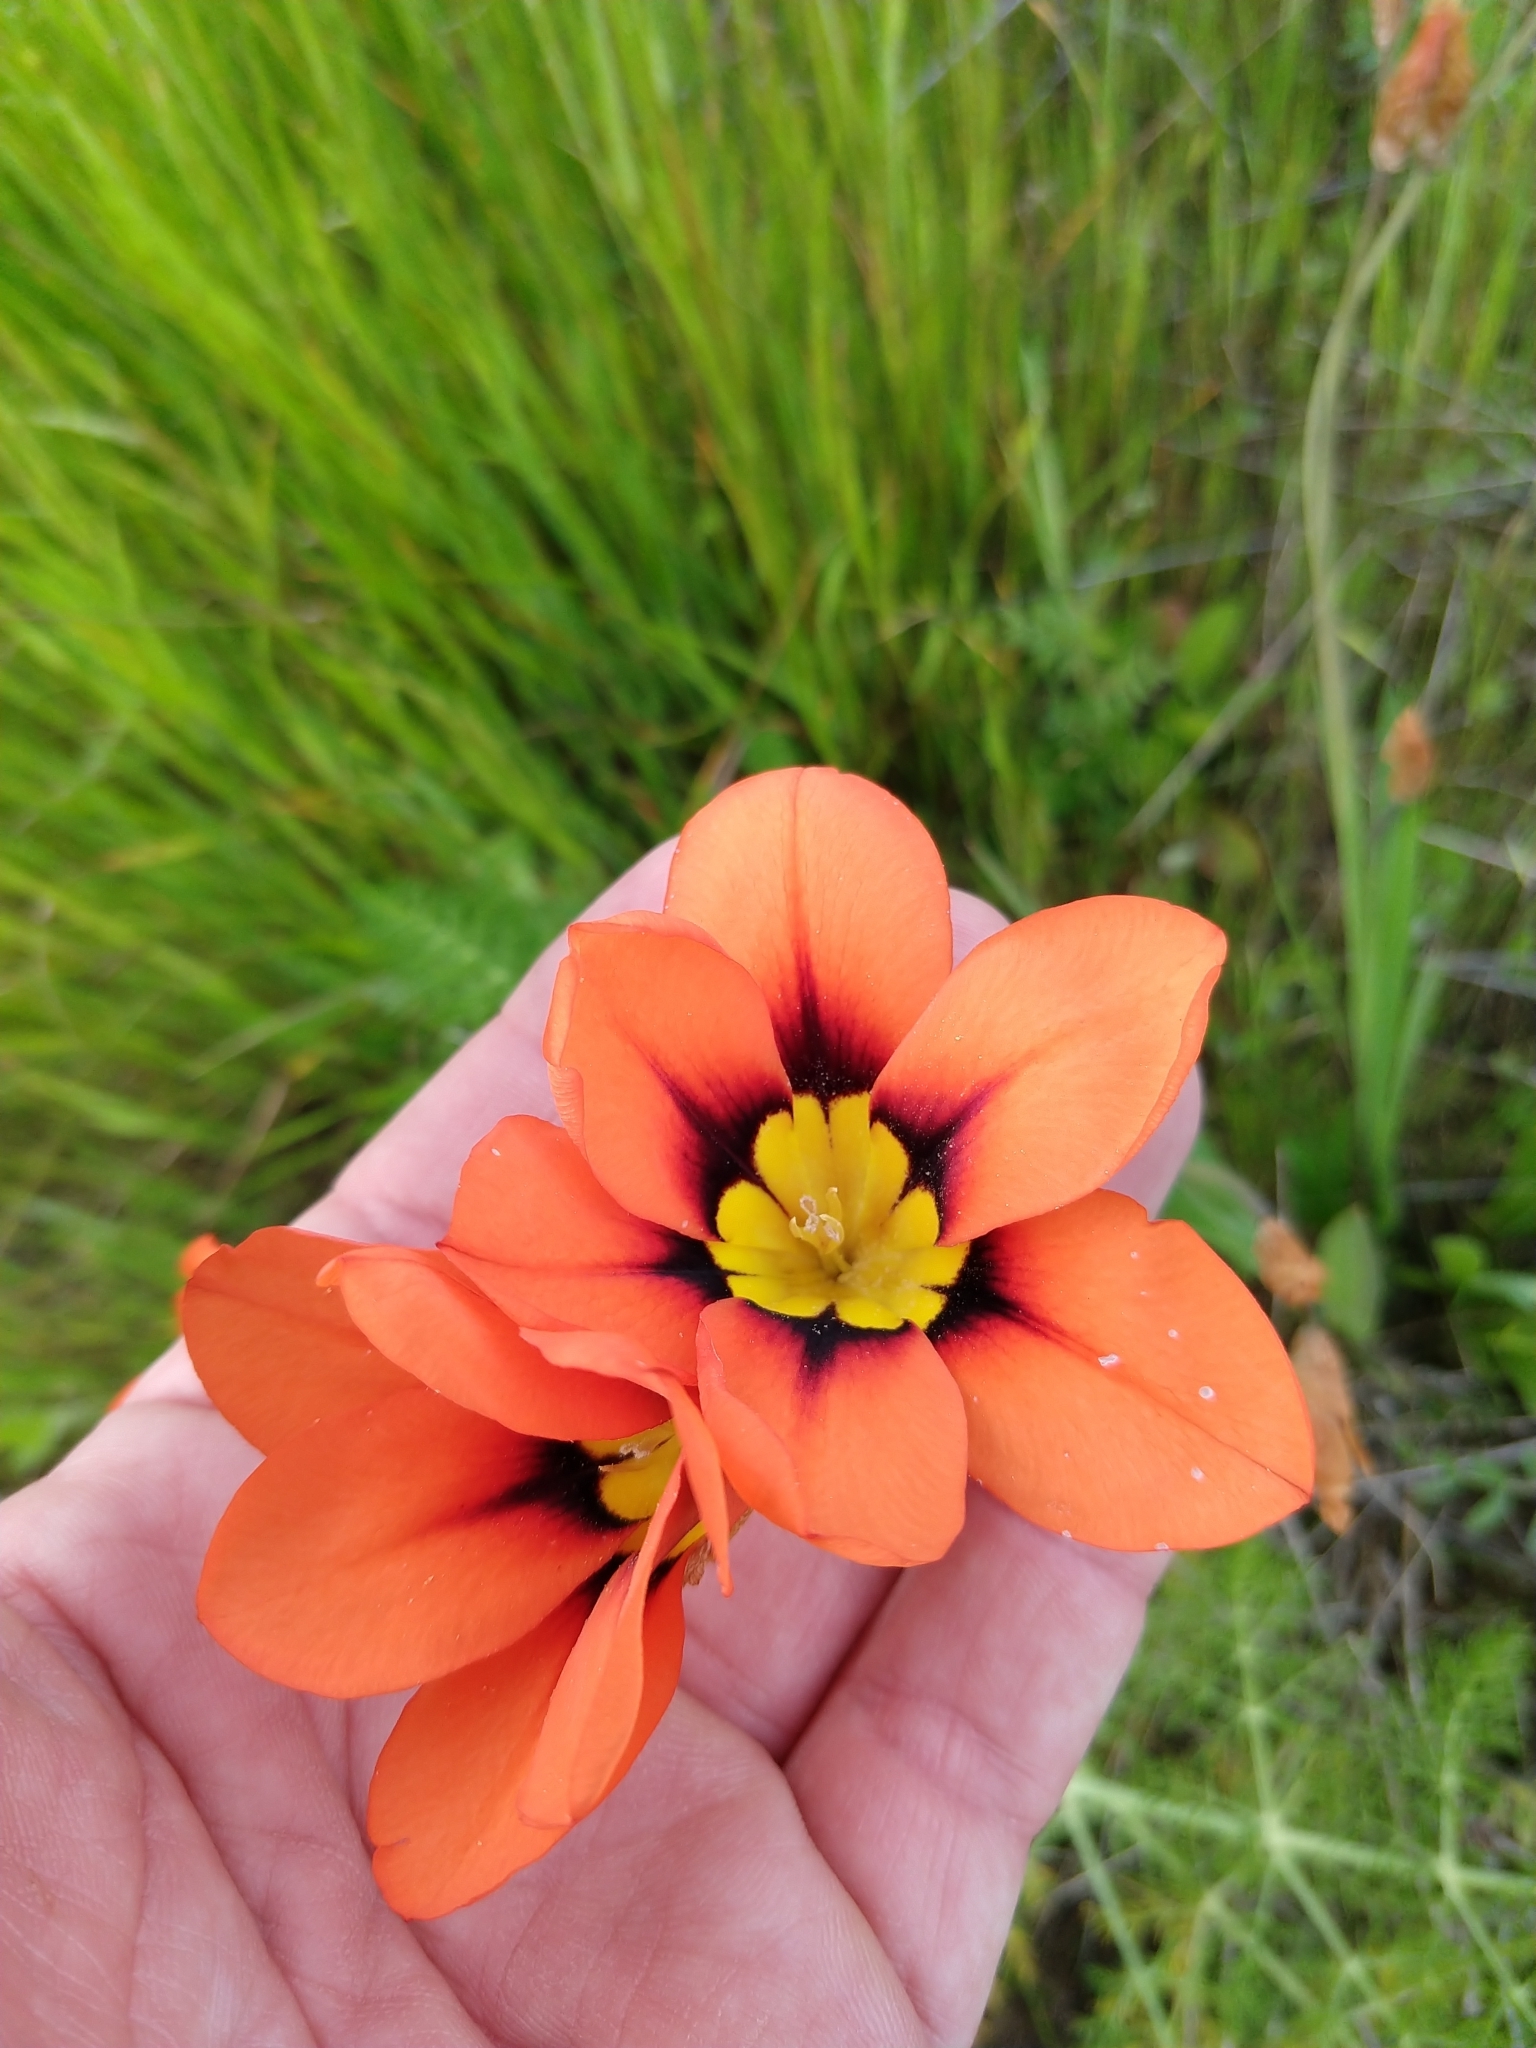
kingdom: Plantae
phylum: Tracheophyta
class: Liliopsida
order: Asparagales
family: Iridaceae
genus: Sparaxis
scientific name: Sparaxis tricolor
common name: Wandflower
